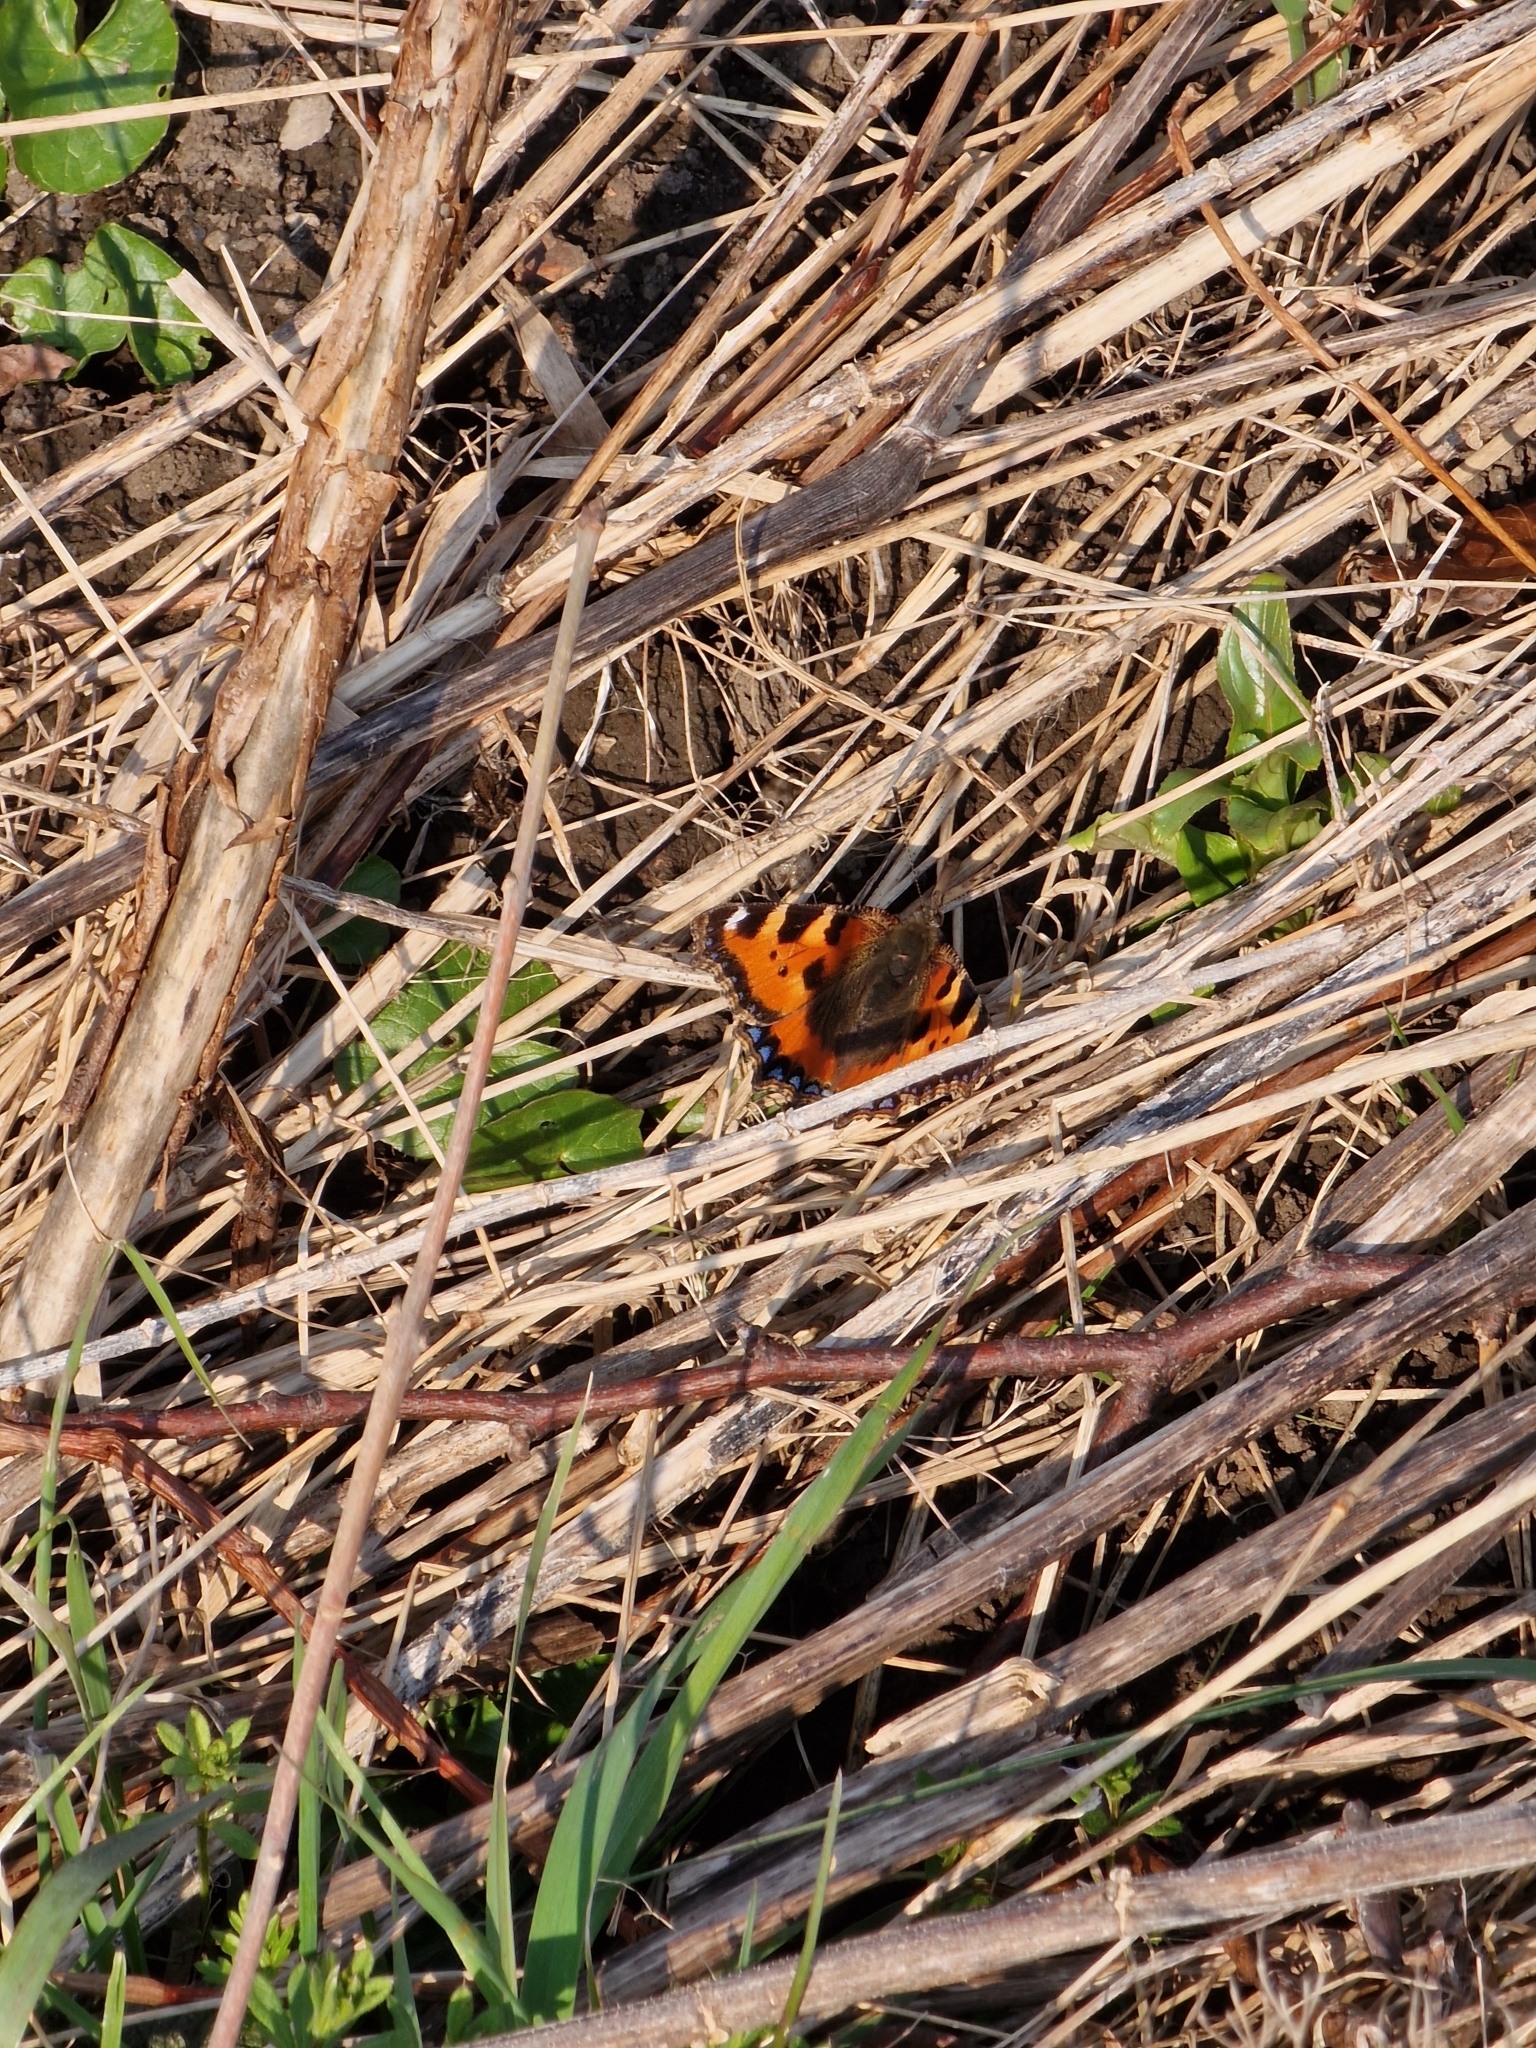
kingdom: Animalia
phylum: Arthropoda
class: Insecta
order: Lepidoptera
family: Nymphalidae
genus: Aglais
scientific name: Aglais urticae
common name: Small tortoiseshell
